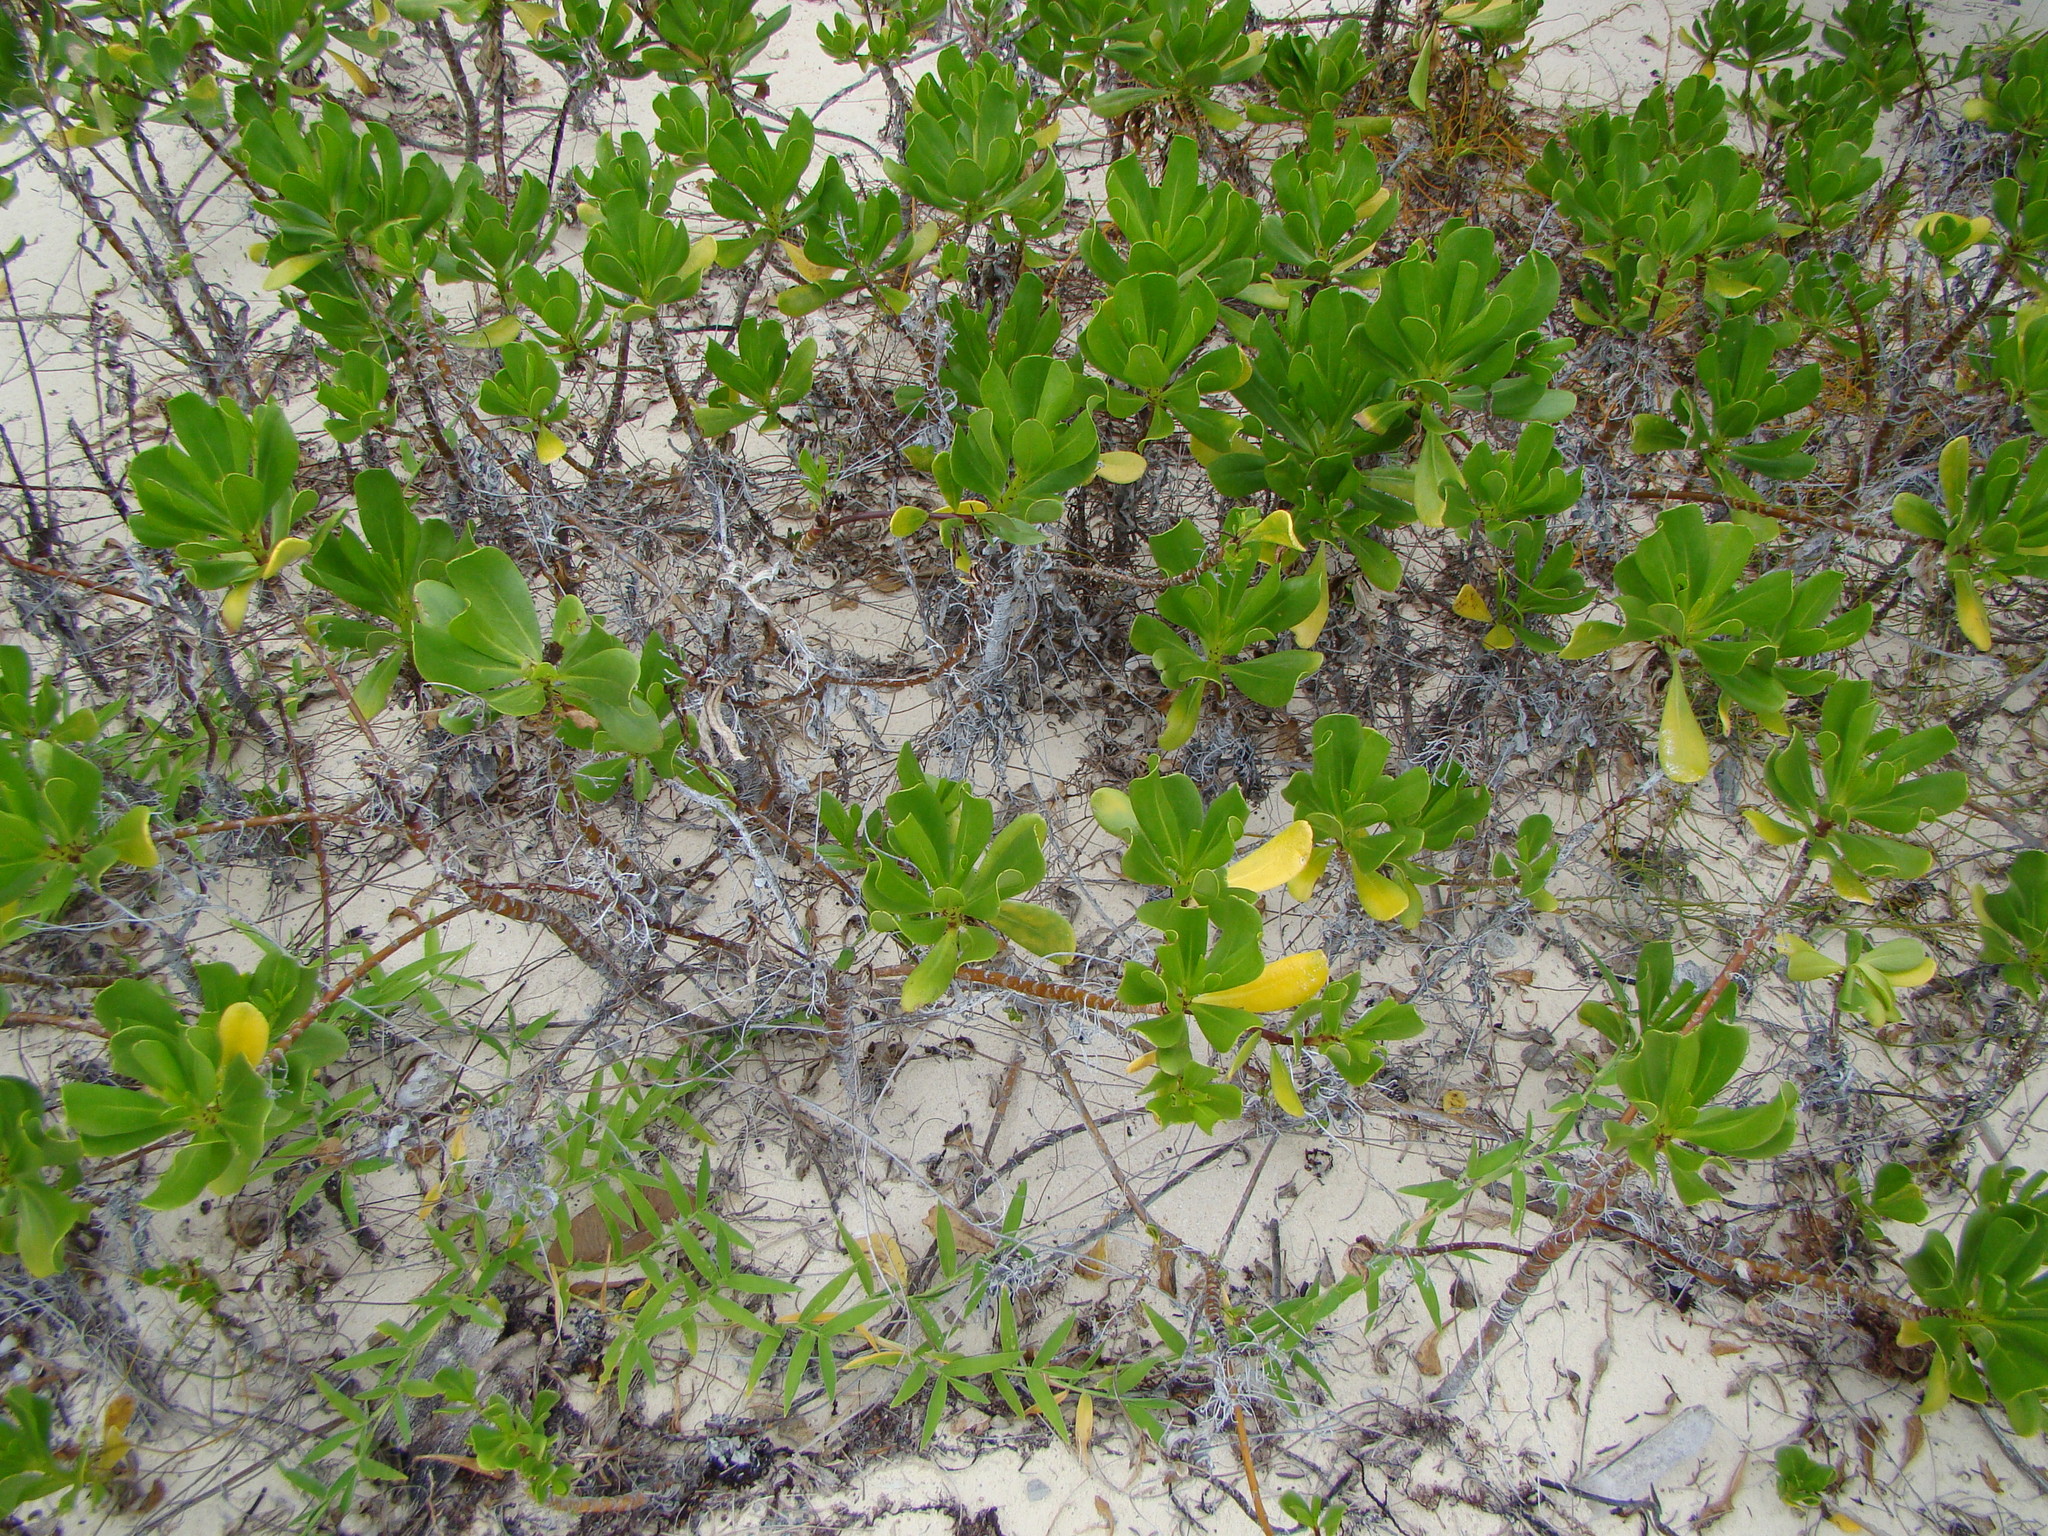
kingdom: Plantae
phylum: Tracheophyta
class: Magnoliopsida
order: Asterales
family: Goodeniaceae
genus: Scaevola
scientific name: Scaevola taccada
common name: Sea lettucetree
